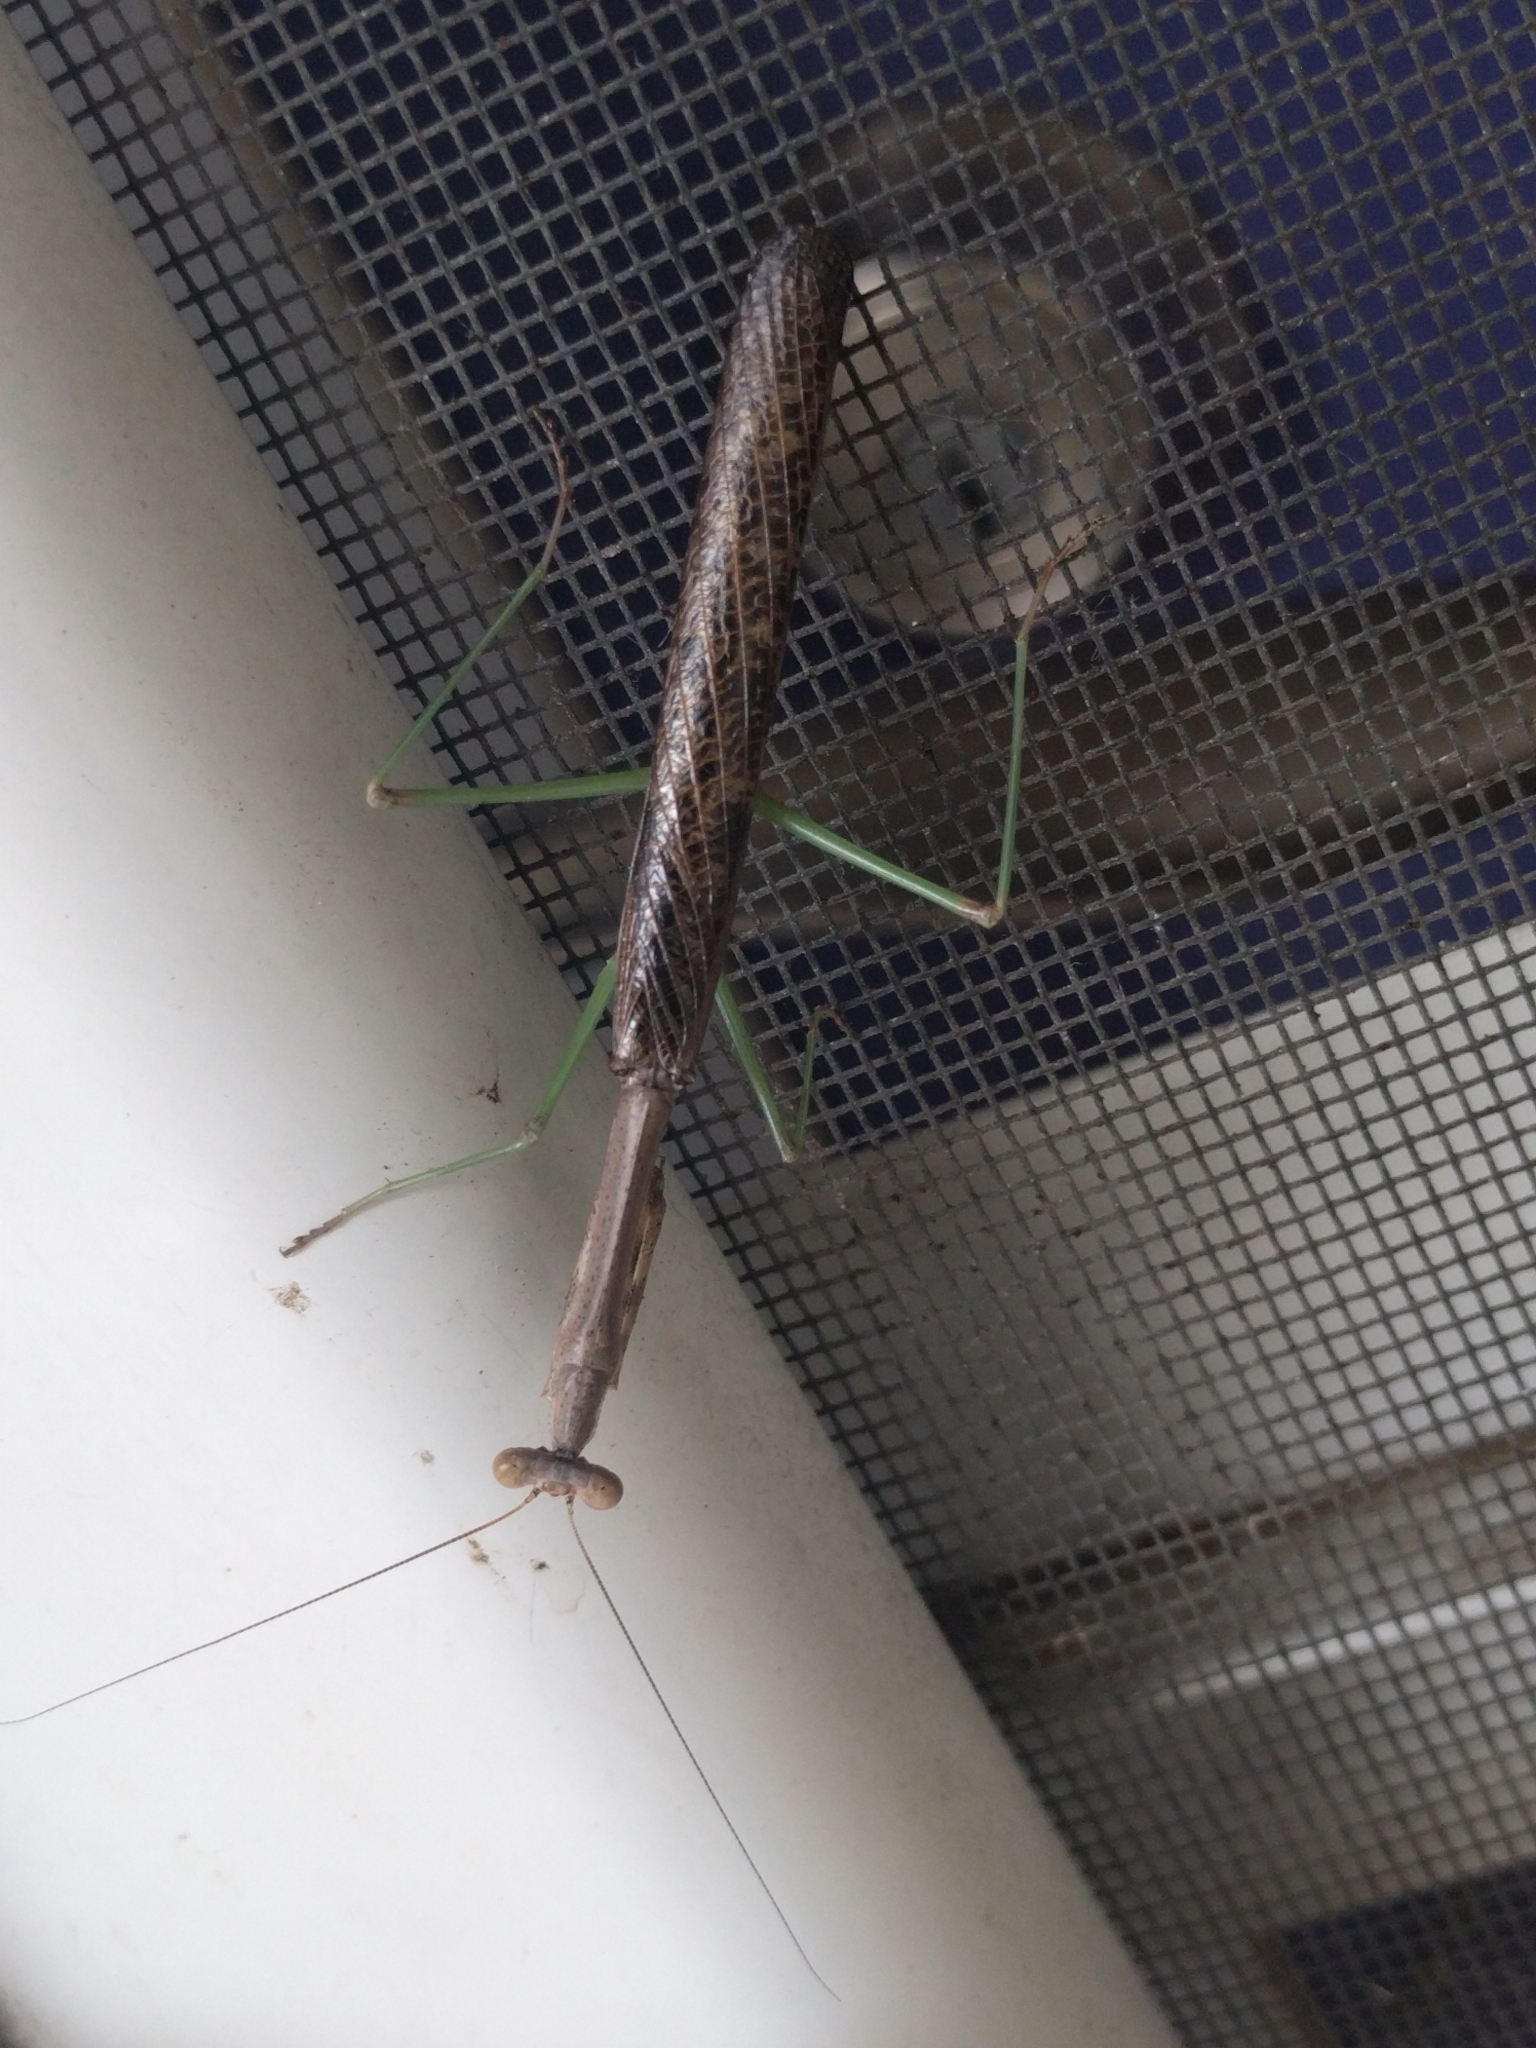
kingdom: Animalia
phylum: Arthropoda
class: Insecta
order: Mantodea
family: Mantidae
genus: Stagmomantis
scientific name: Stagmomantis carolina
